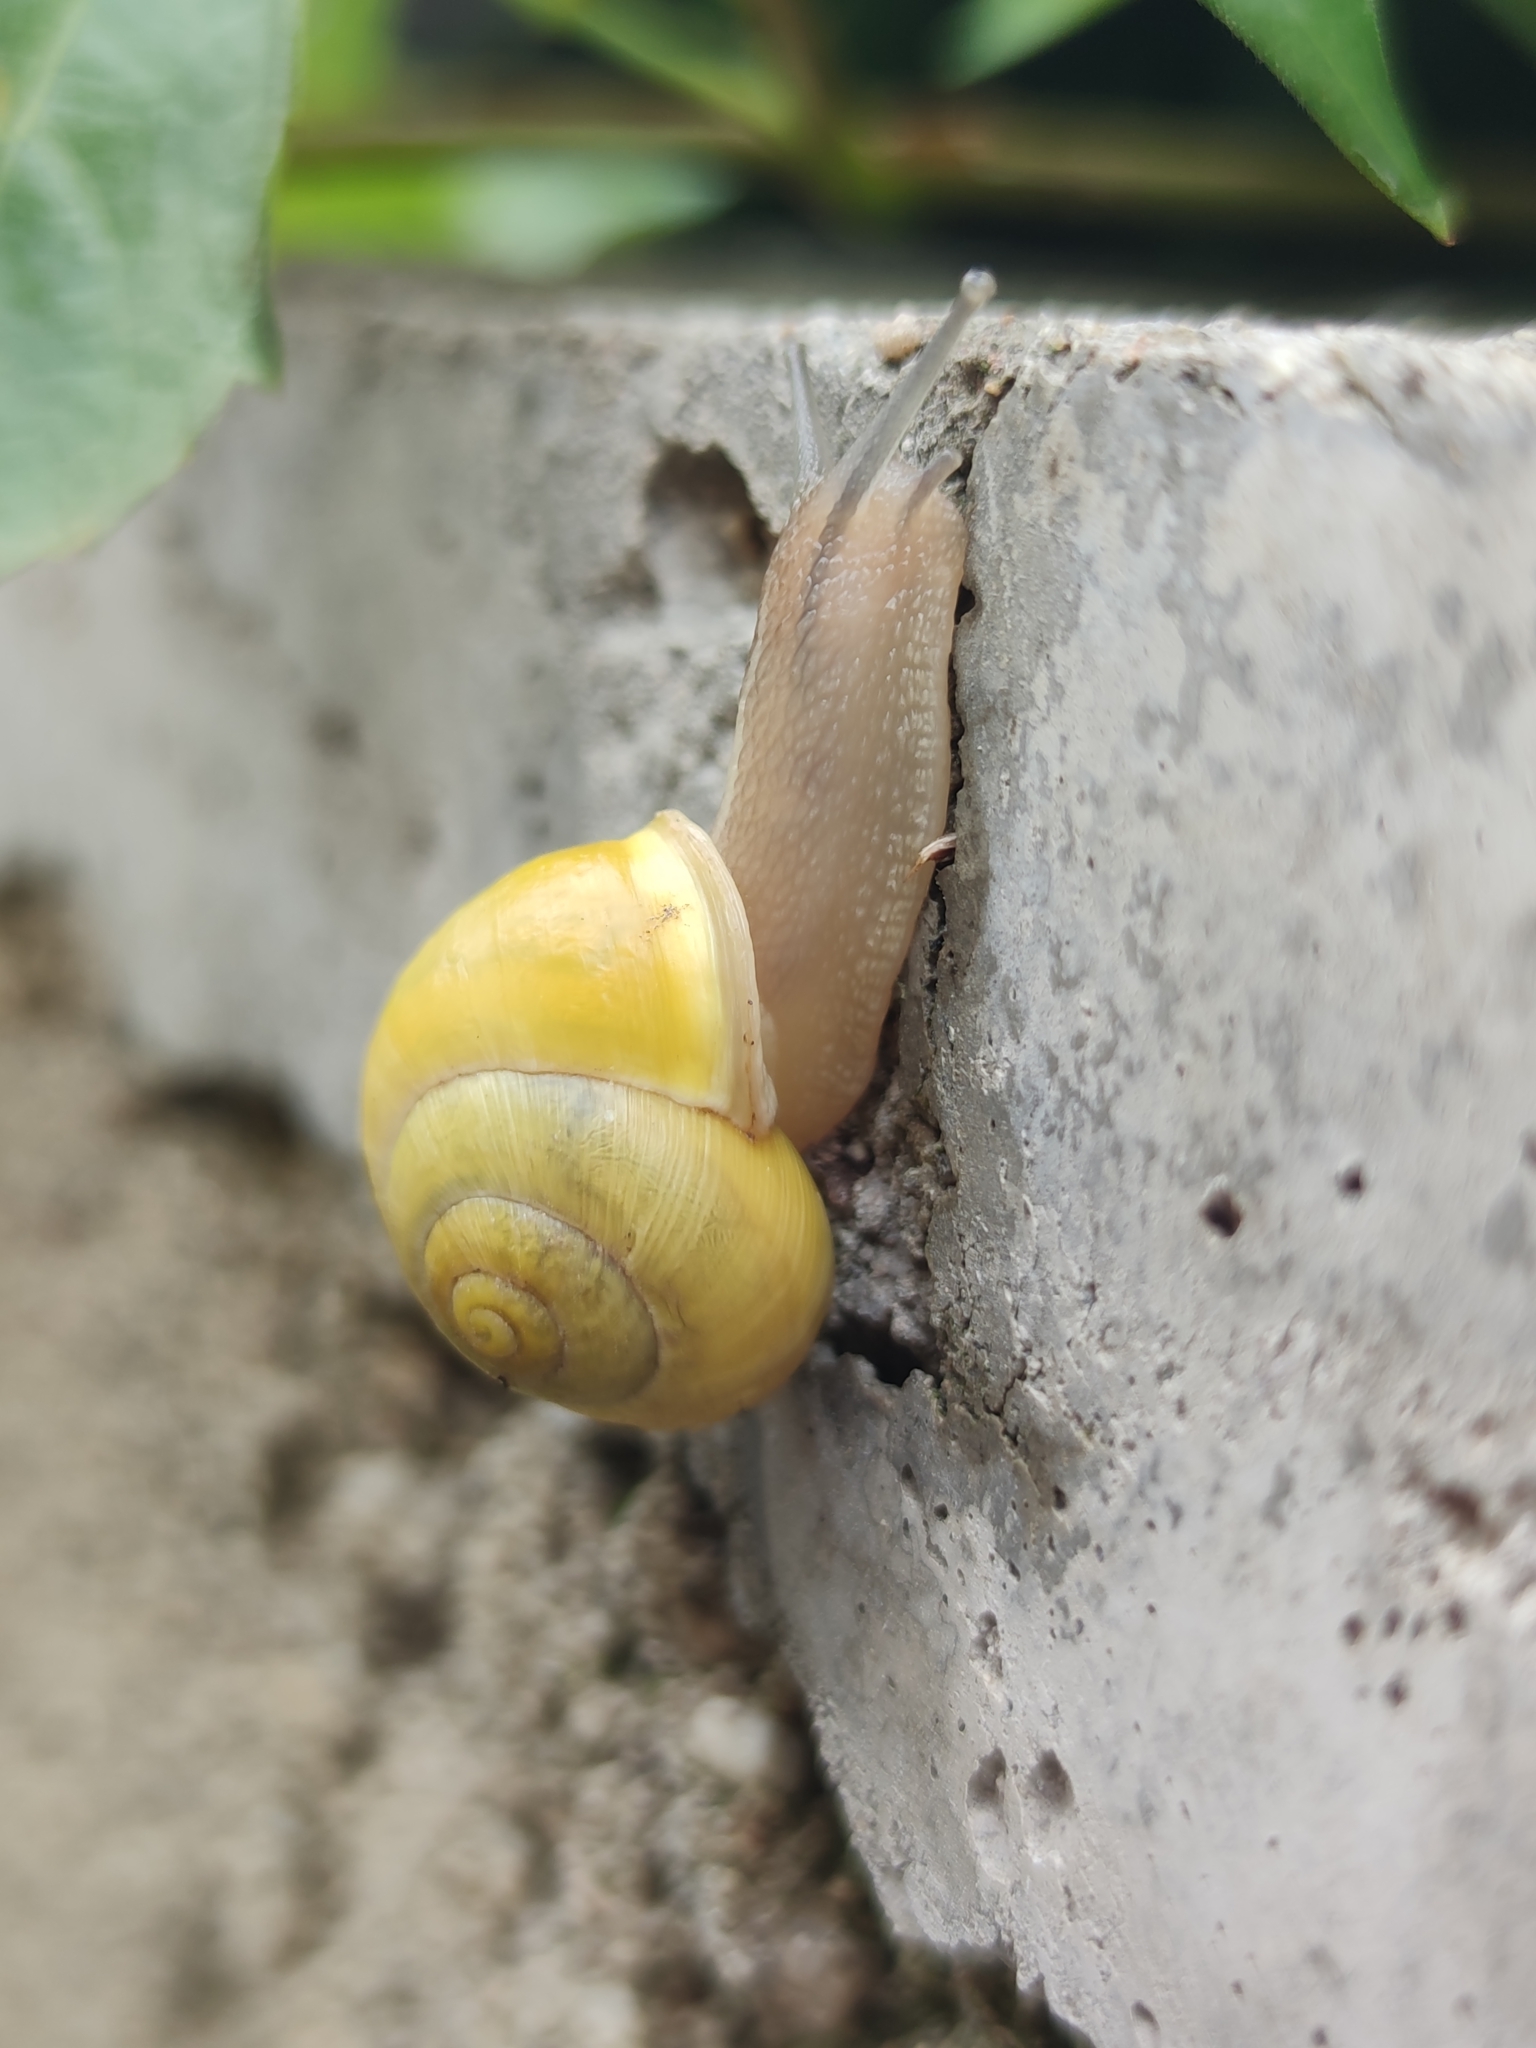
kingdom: Animalia
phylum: Mollusca
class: Gastropoda
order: Stylommatophora
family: Helicidae
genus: Cepaea
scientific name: Cepaea hortensis
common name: White-lip gardensnail
